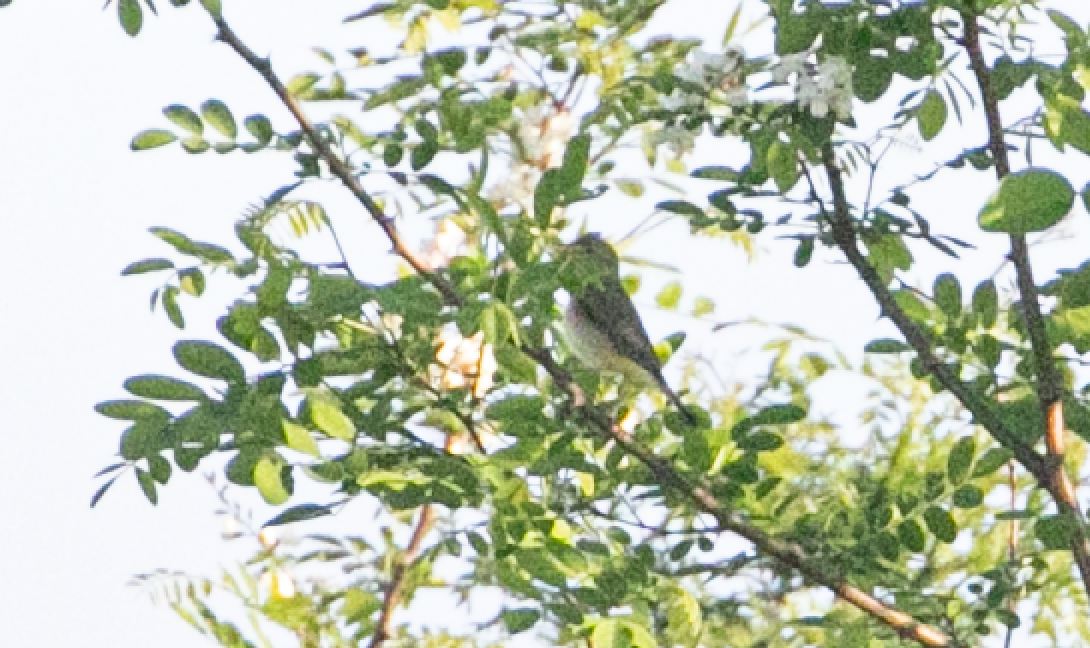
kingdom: Animalia
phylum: Chordata
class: Aves
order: Passeriformes
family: Acrocephalidae
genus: Hippolais
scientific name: Hippolais polyglotta
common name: Melodious warbler
